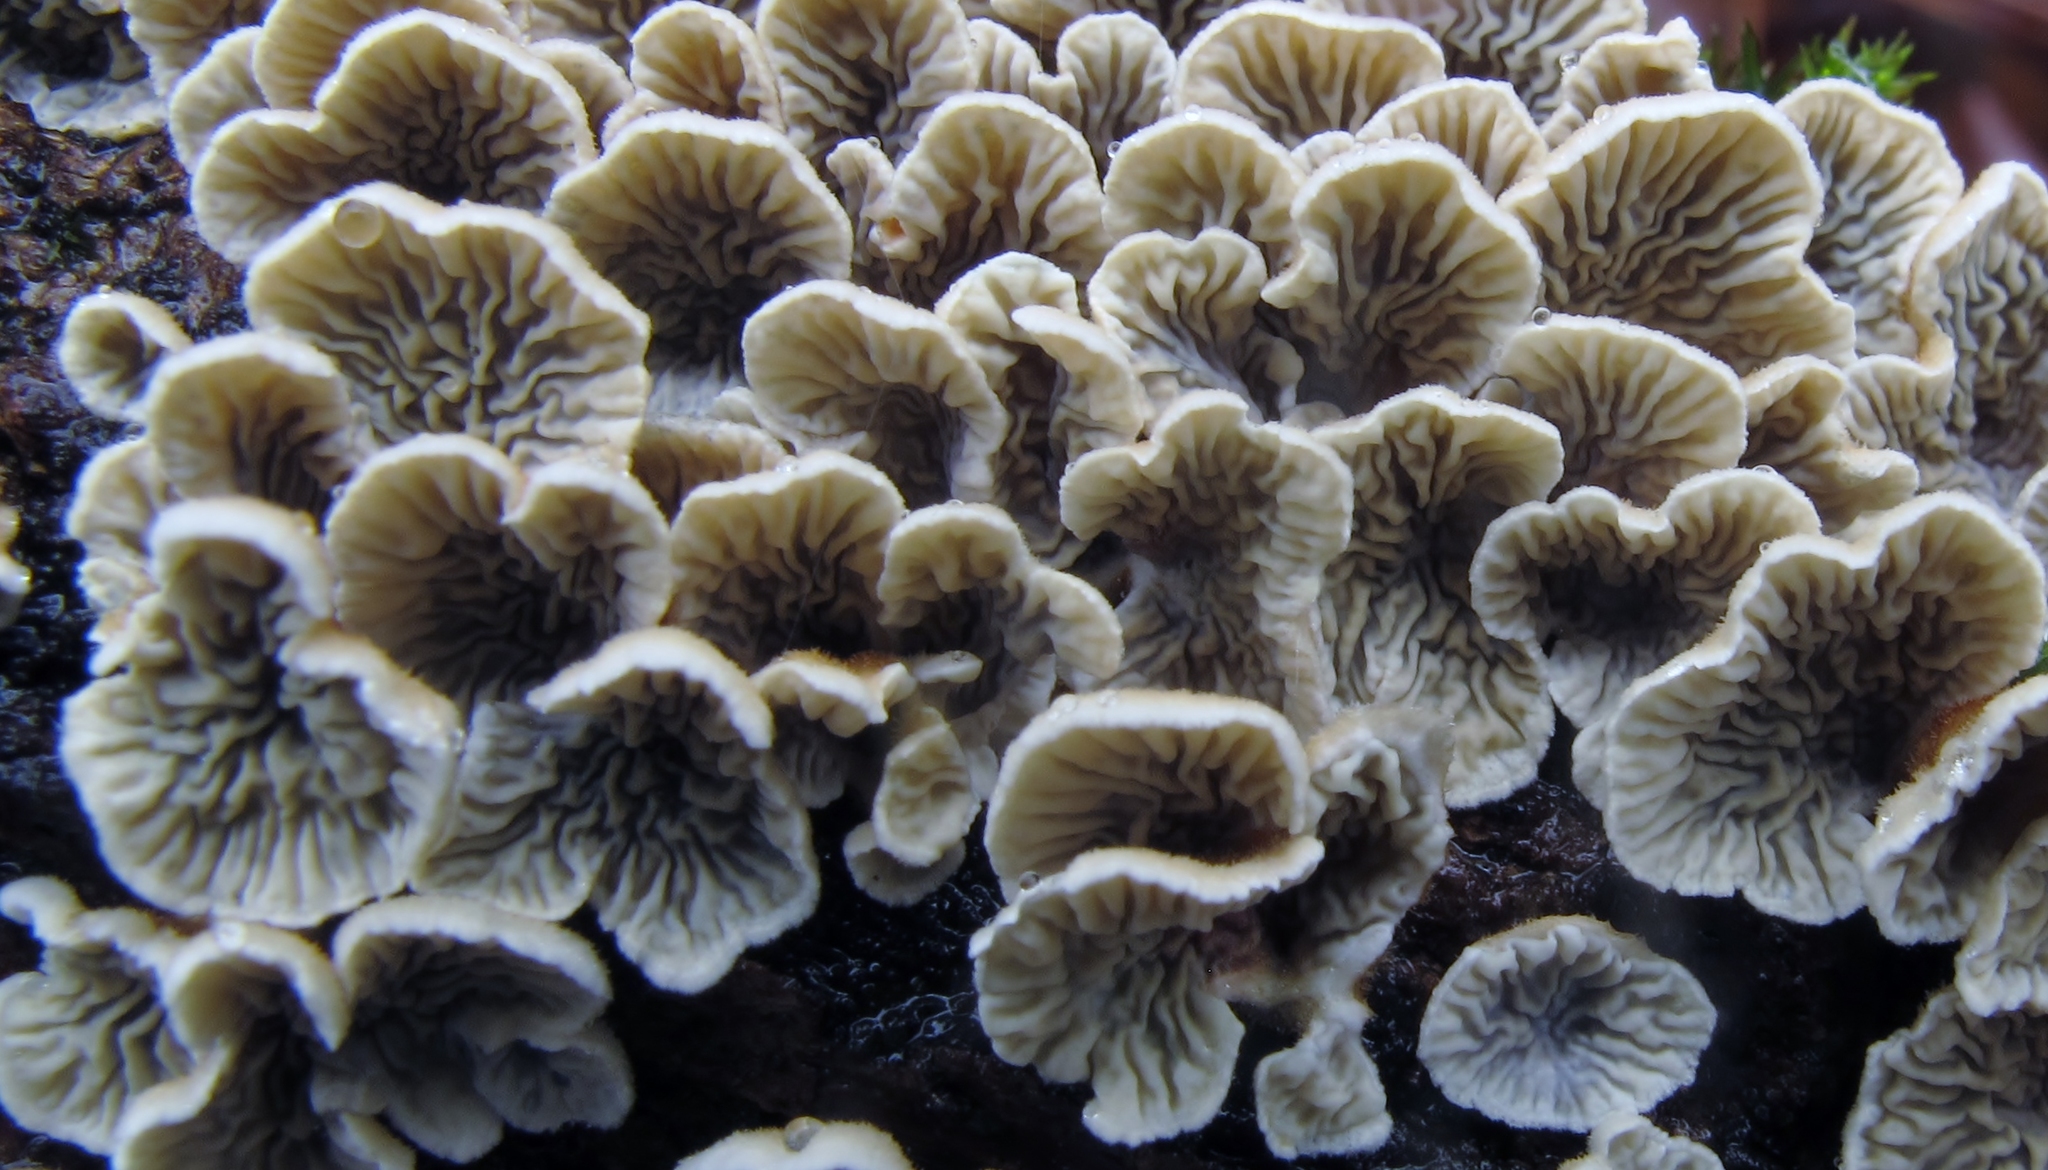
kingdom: Fungi
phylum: Basidiomycota
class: Agaricomycetes
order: Amylocorticiales
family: Amylocorticiaceae
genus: Plicaturopsis
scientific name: Plicaturopsis crispa
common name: Crimped gill
